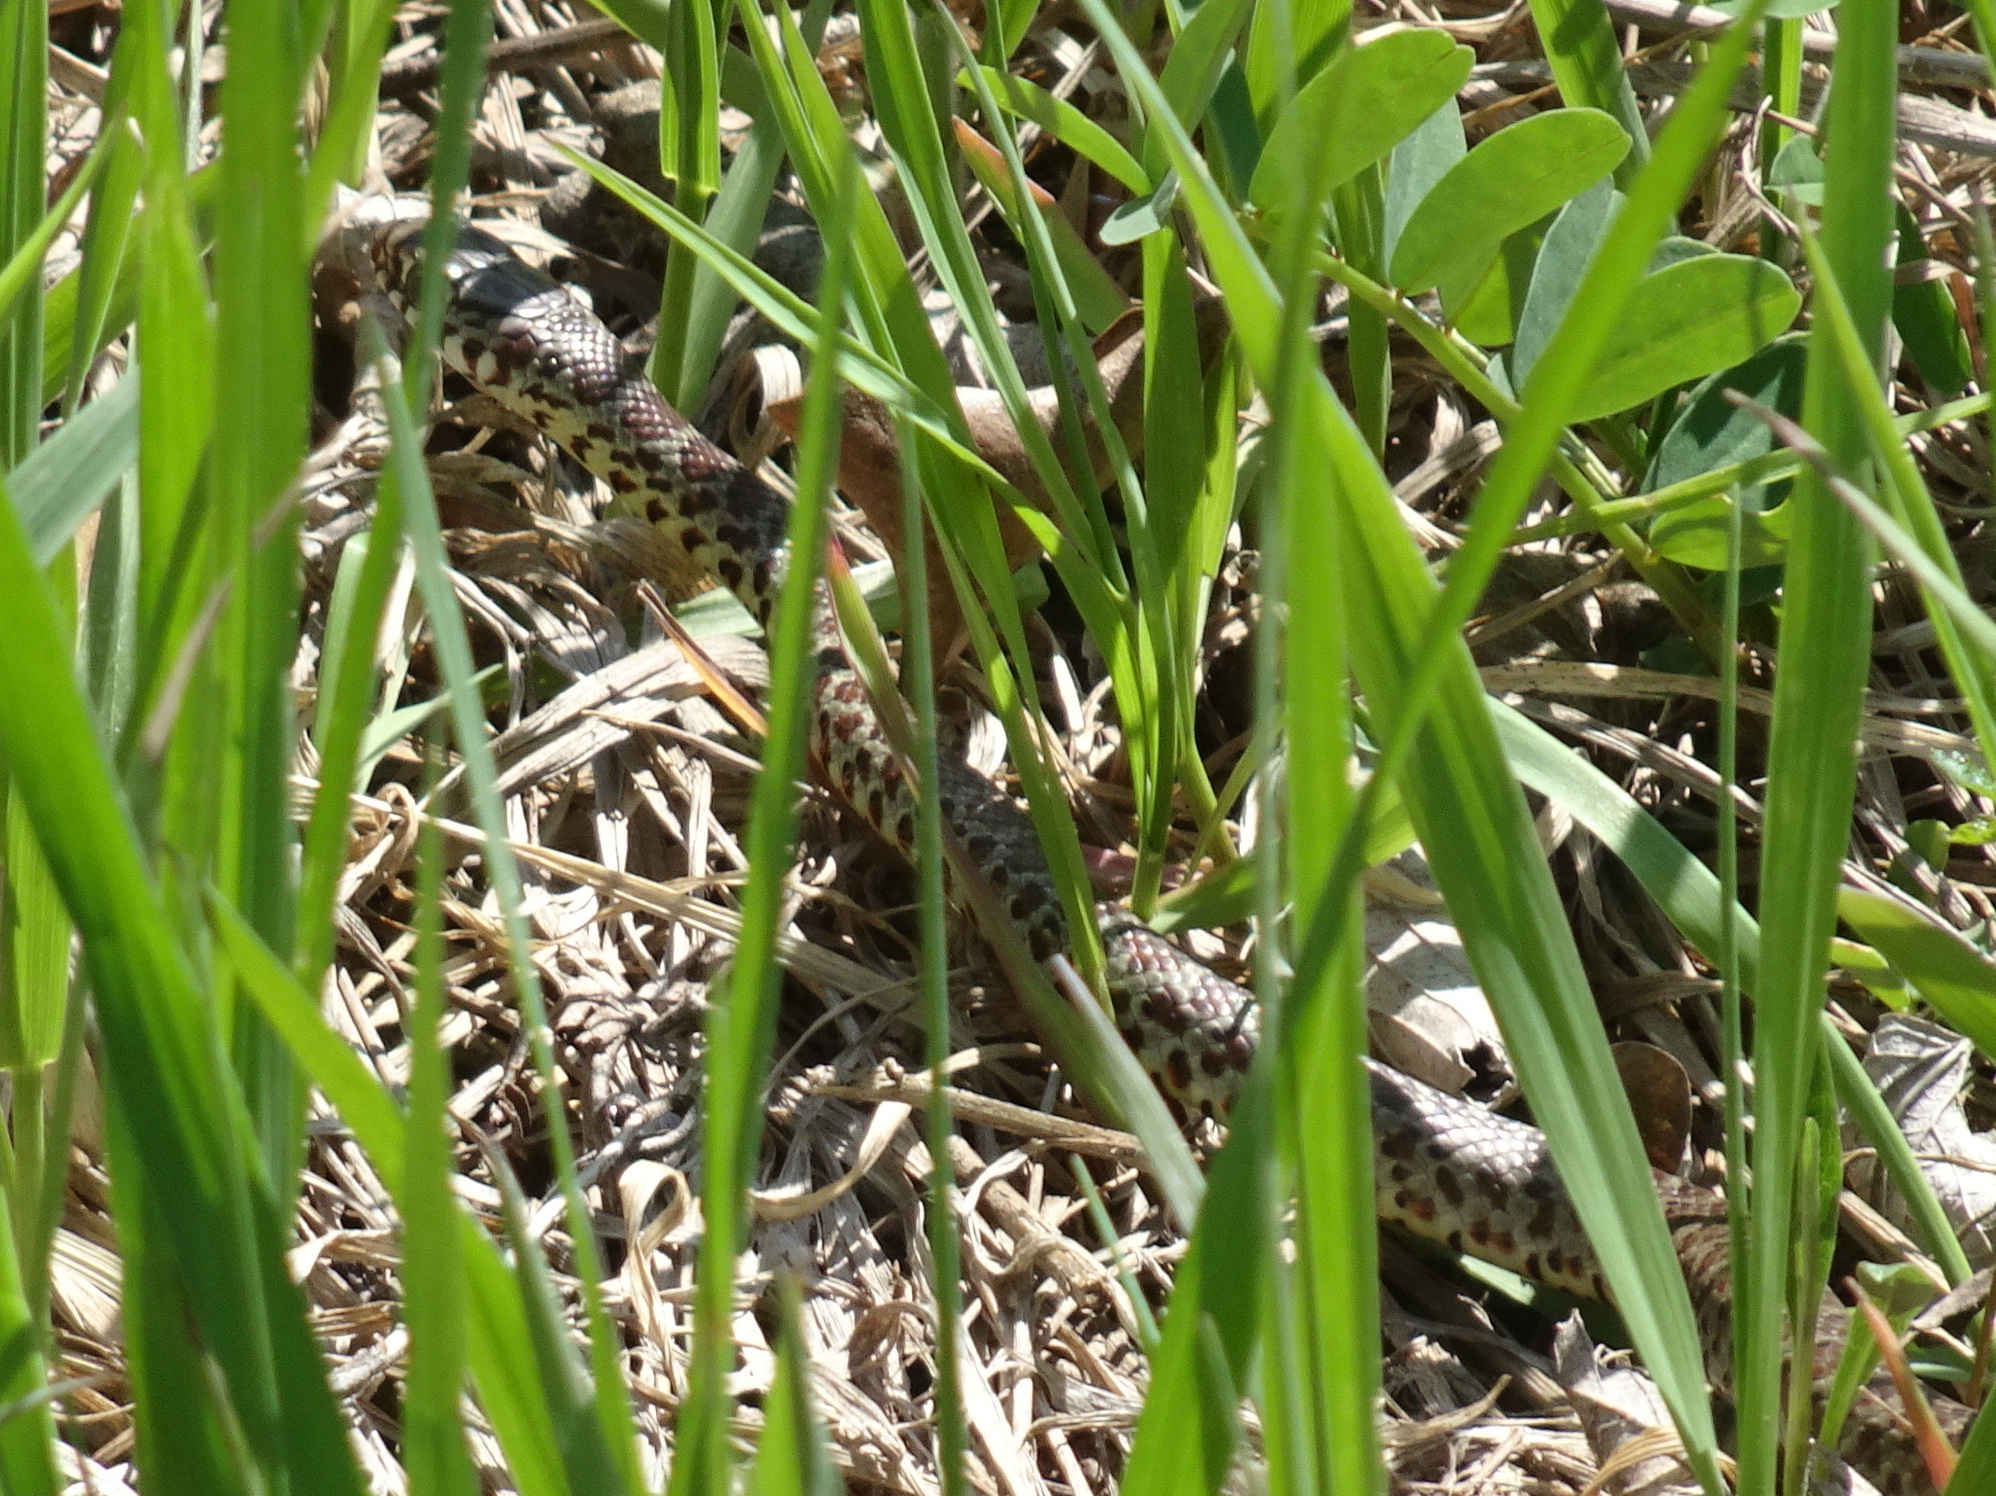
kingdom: Animalia
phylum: Chordata
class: Squamata
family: Colubridae
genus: Coluber
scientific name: Coluber constrictor
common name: Eastern racer
